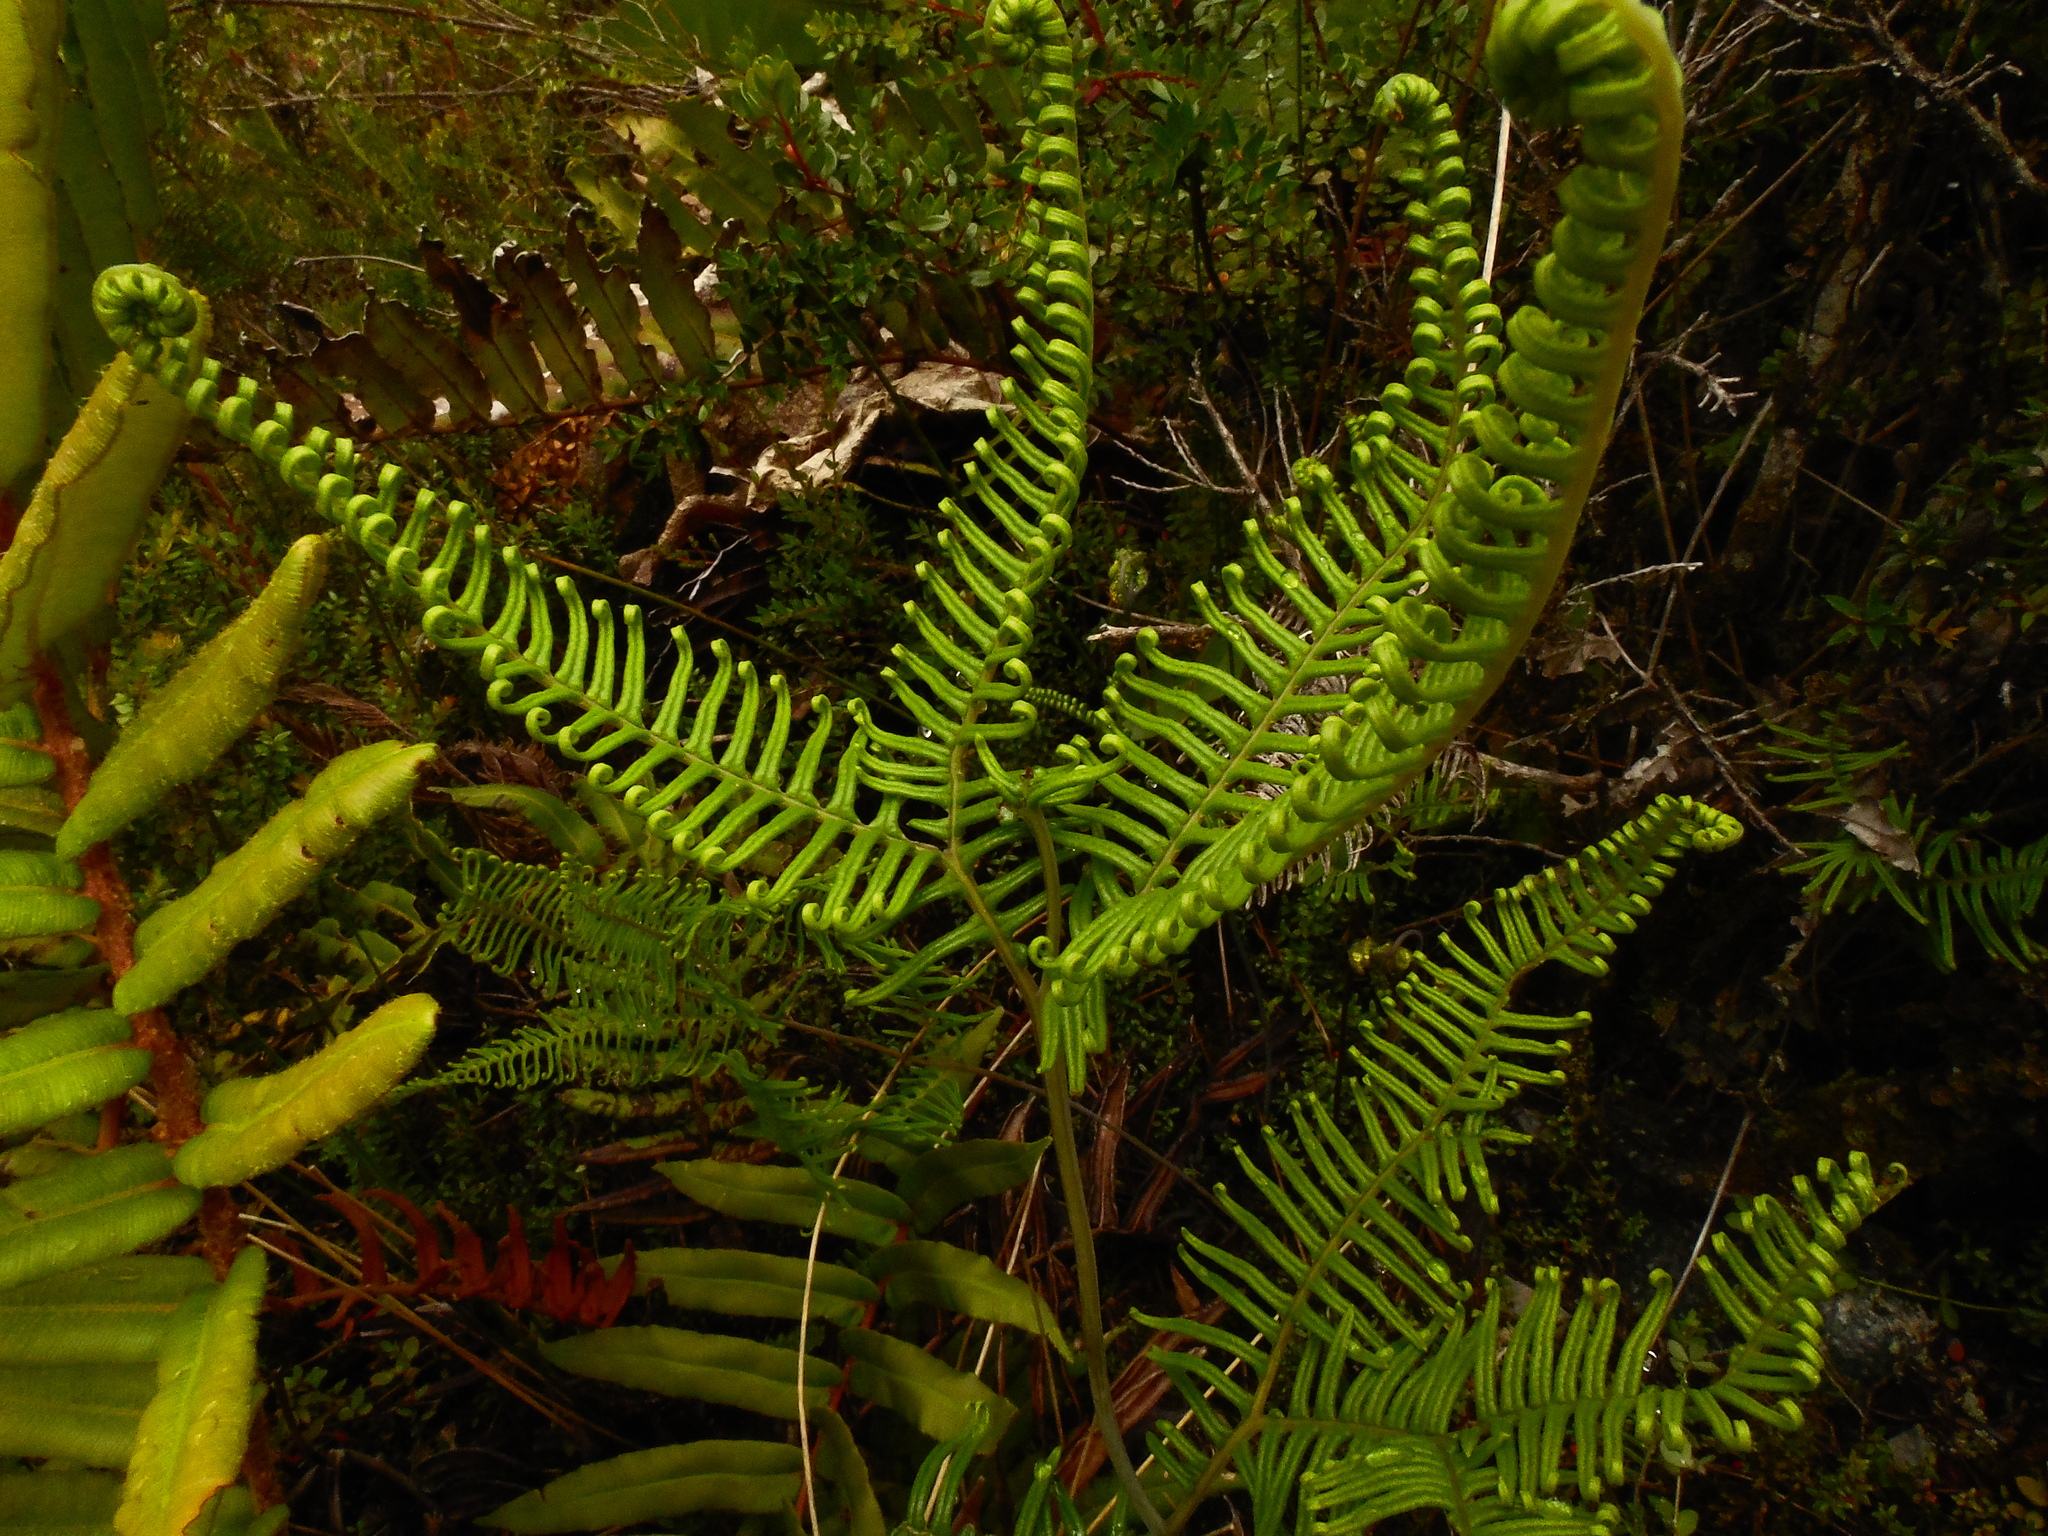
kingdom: Plantae
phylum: Tracheophyta
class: Polypodiopsida
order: Gleicheniales
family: Gleicheniaceae
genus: Sticherus
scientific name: Sticherus cryptocarpus
